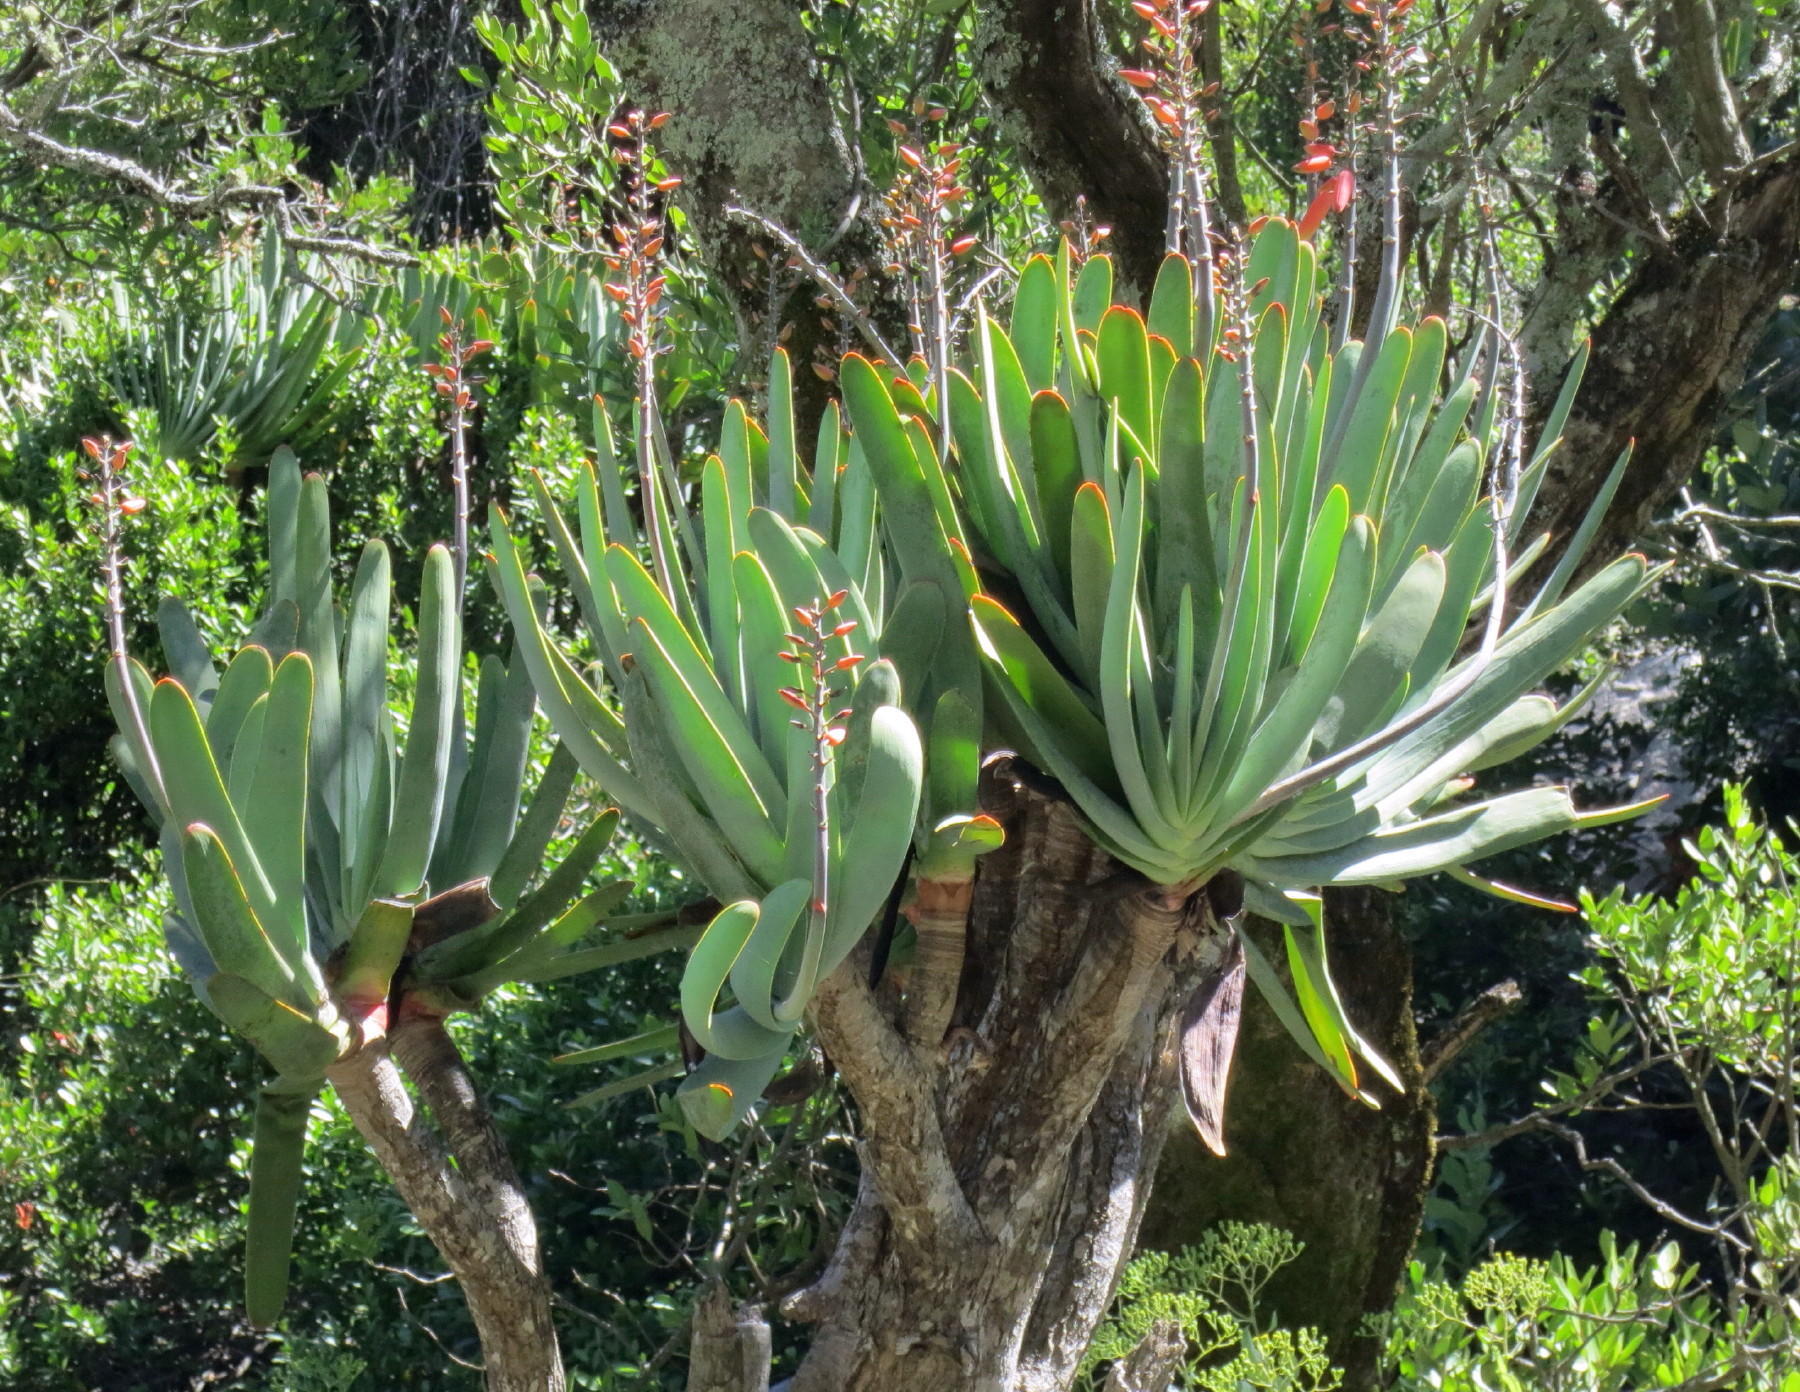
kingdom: Plantae
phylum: Tracheophyta
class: Liliopsida
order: Asparagales
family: Asphodelaceae
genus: Kumara
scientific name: Kumara plicatilis
